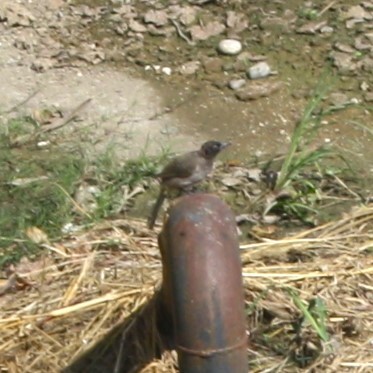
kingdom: Animalia
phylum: Chordata
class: Aves
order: Passeriformes
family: Pycnonotidae
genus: Pycnonotus
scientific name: Pycnonotus xanthopygos
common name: White-spectacled bulbul
